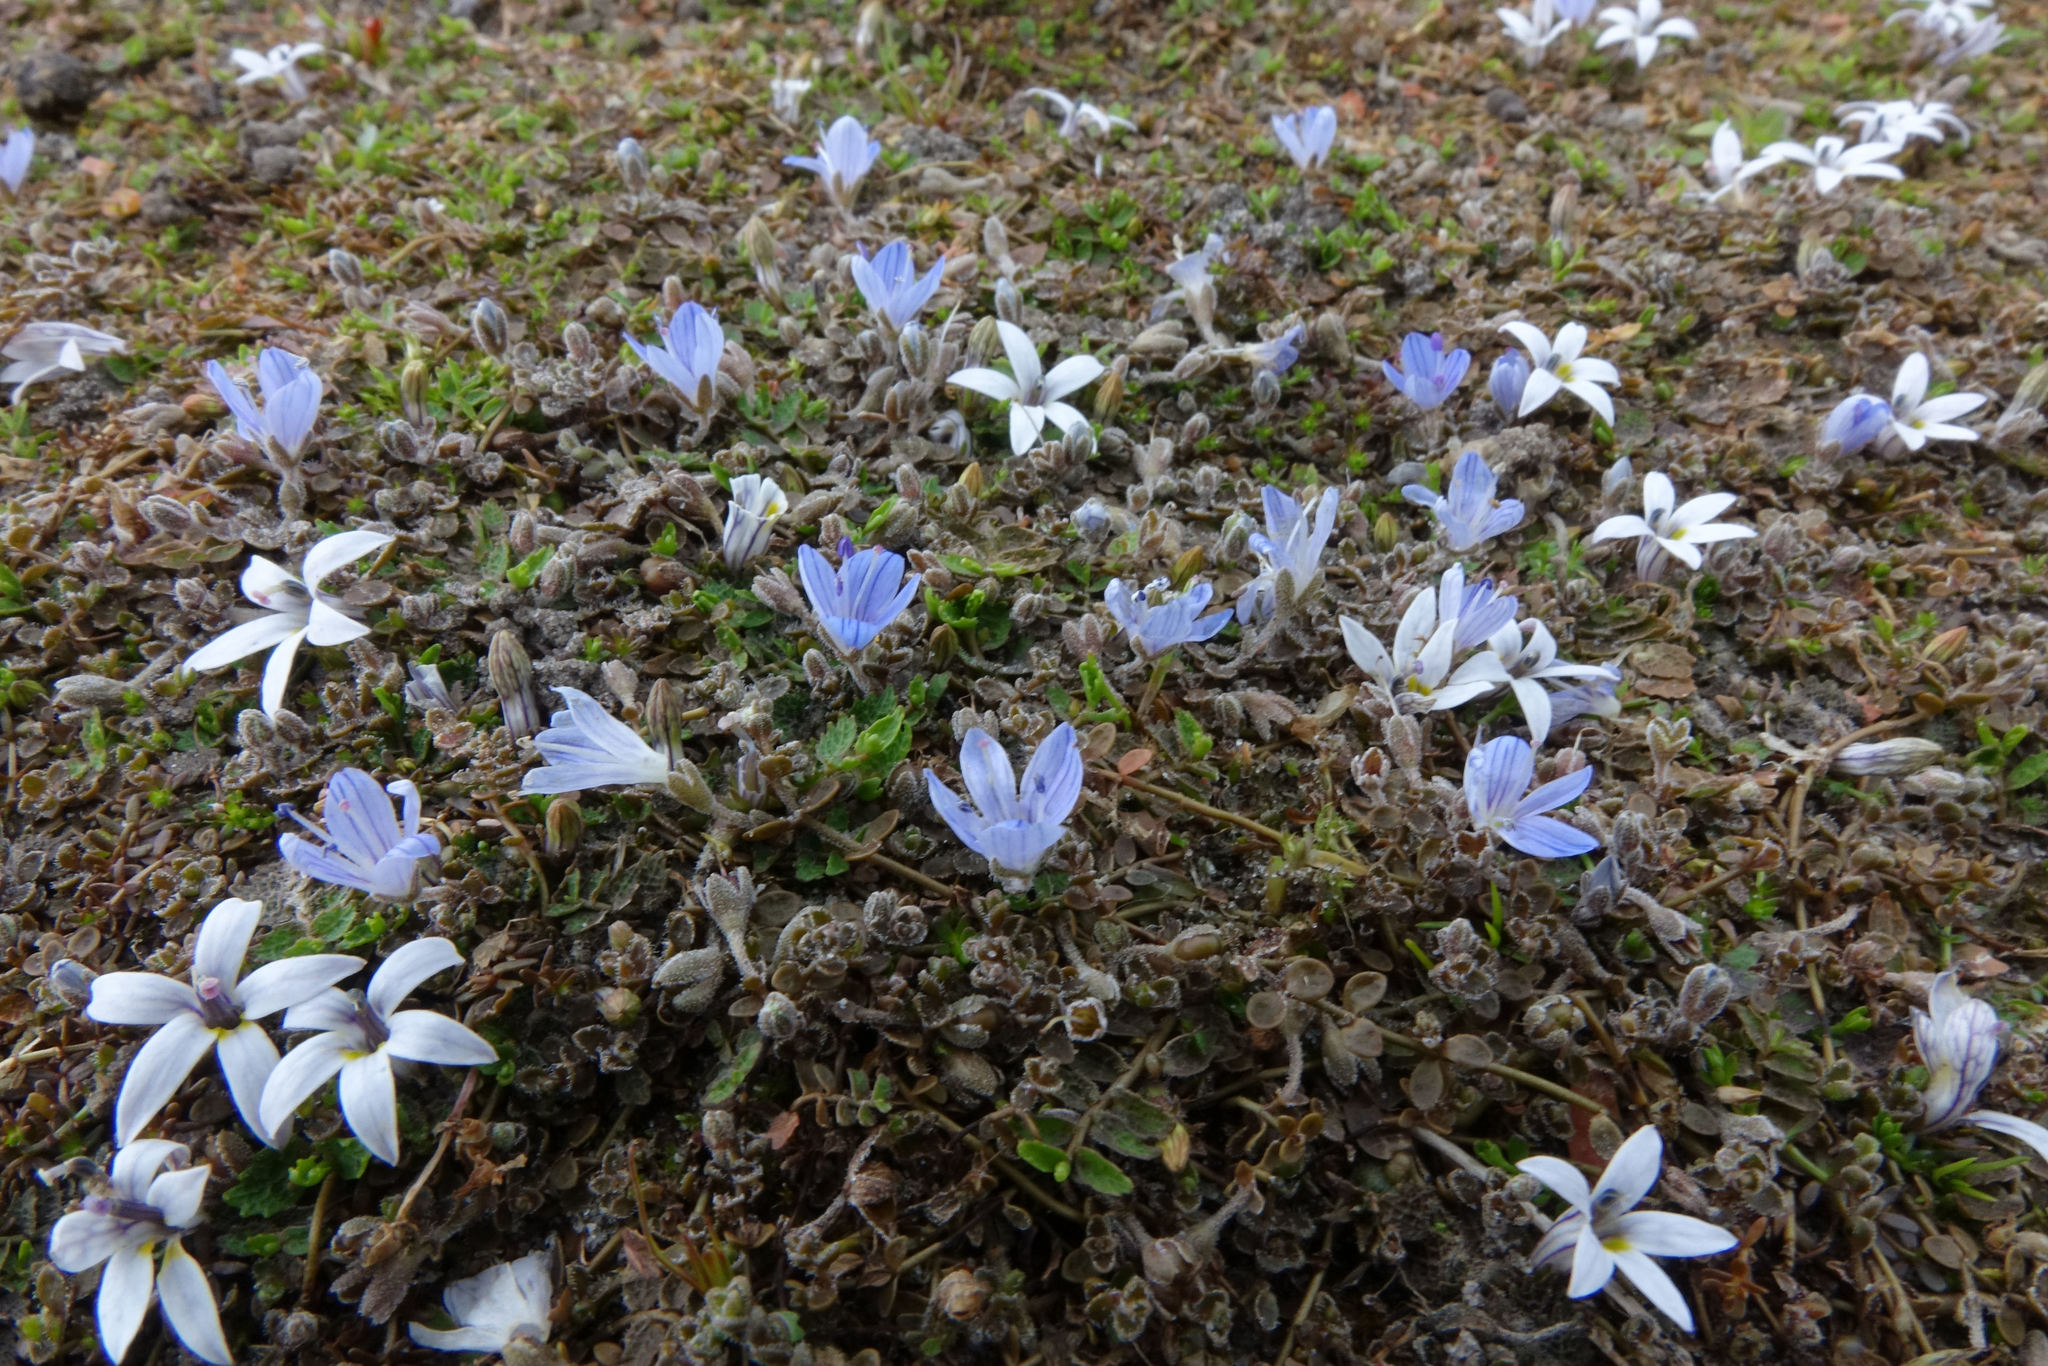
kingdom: Plantae
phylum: Tracheophyta
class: Magnoliopsida
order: Lamiales
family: Plantaginaceae
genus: Veronica
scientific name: Veronica lilliputiana
